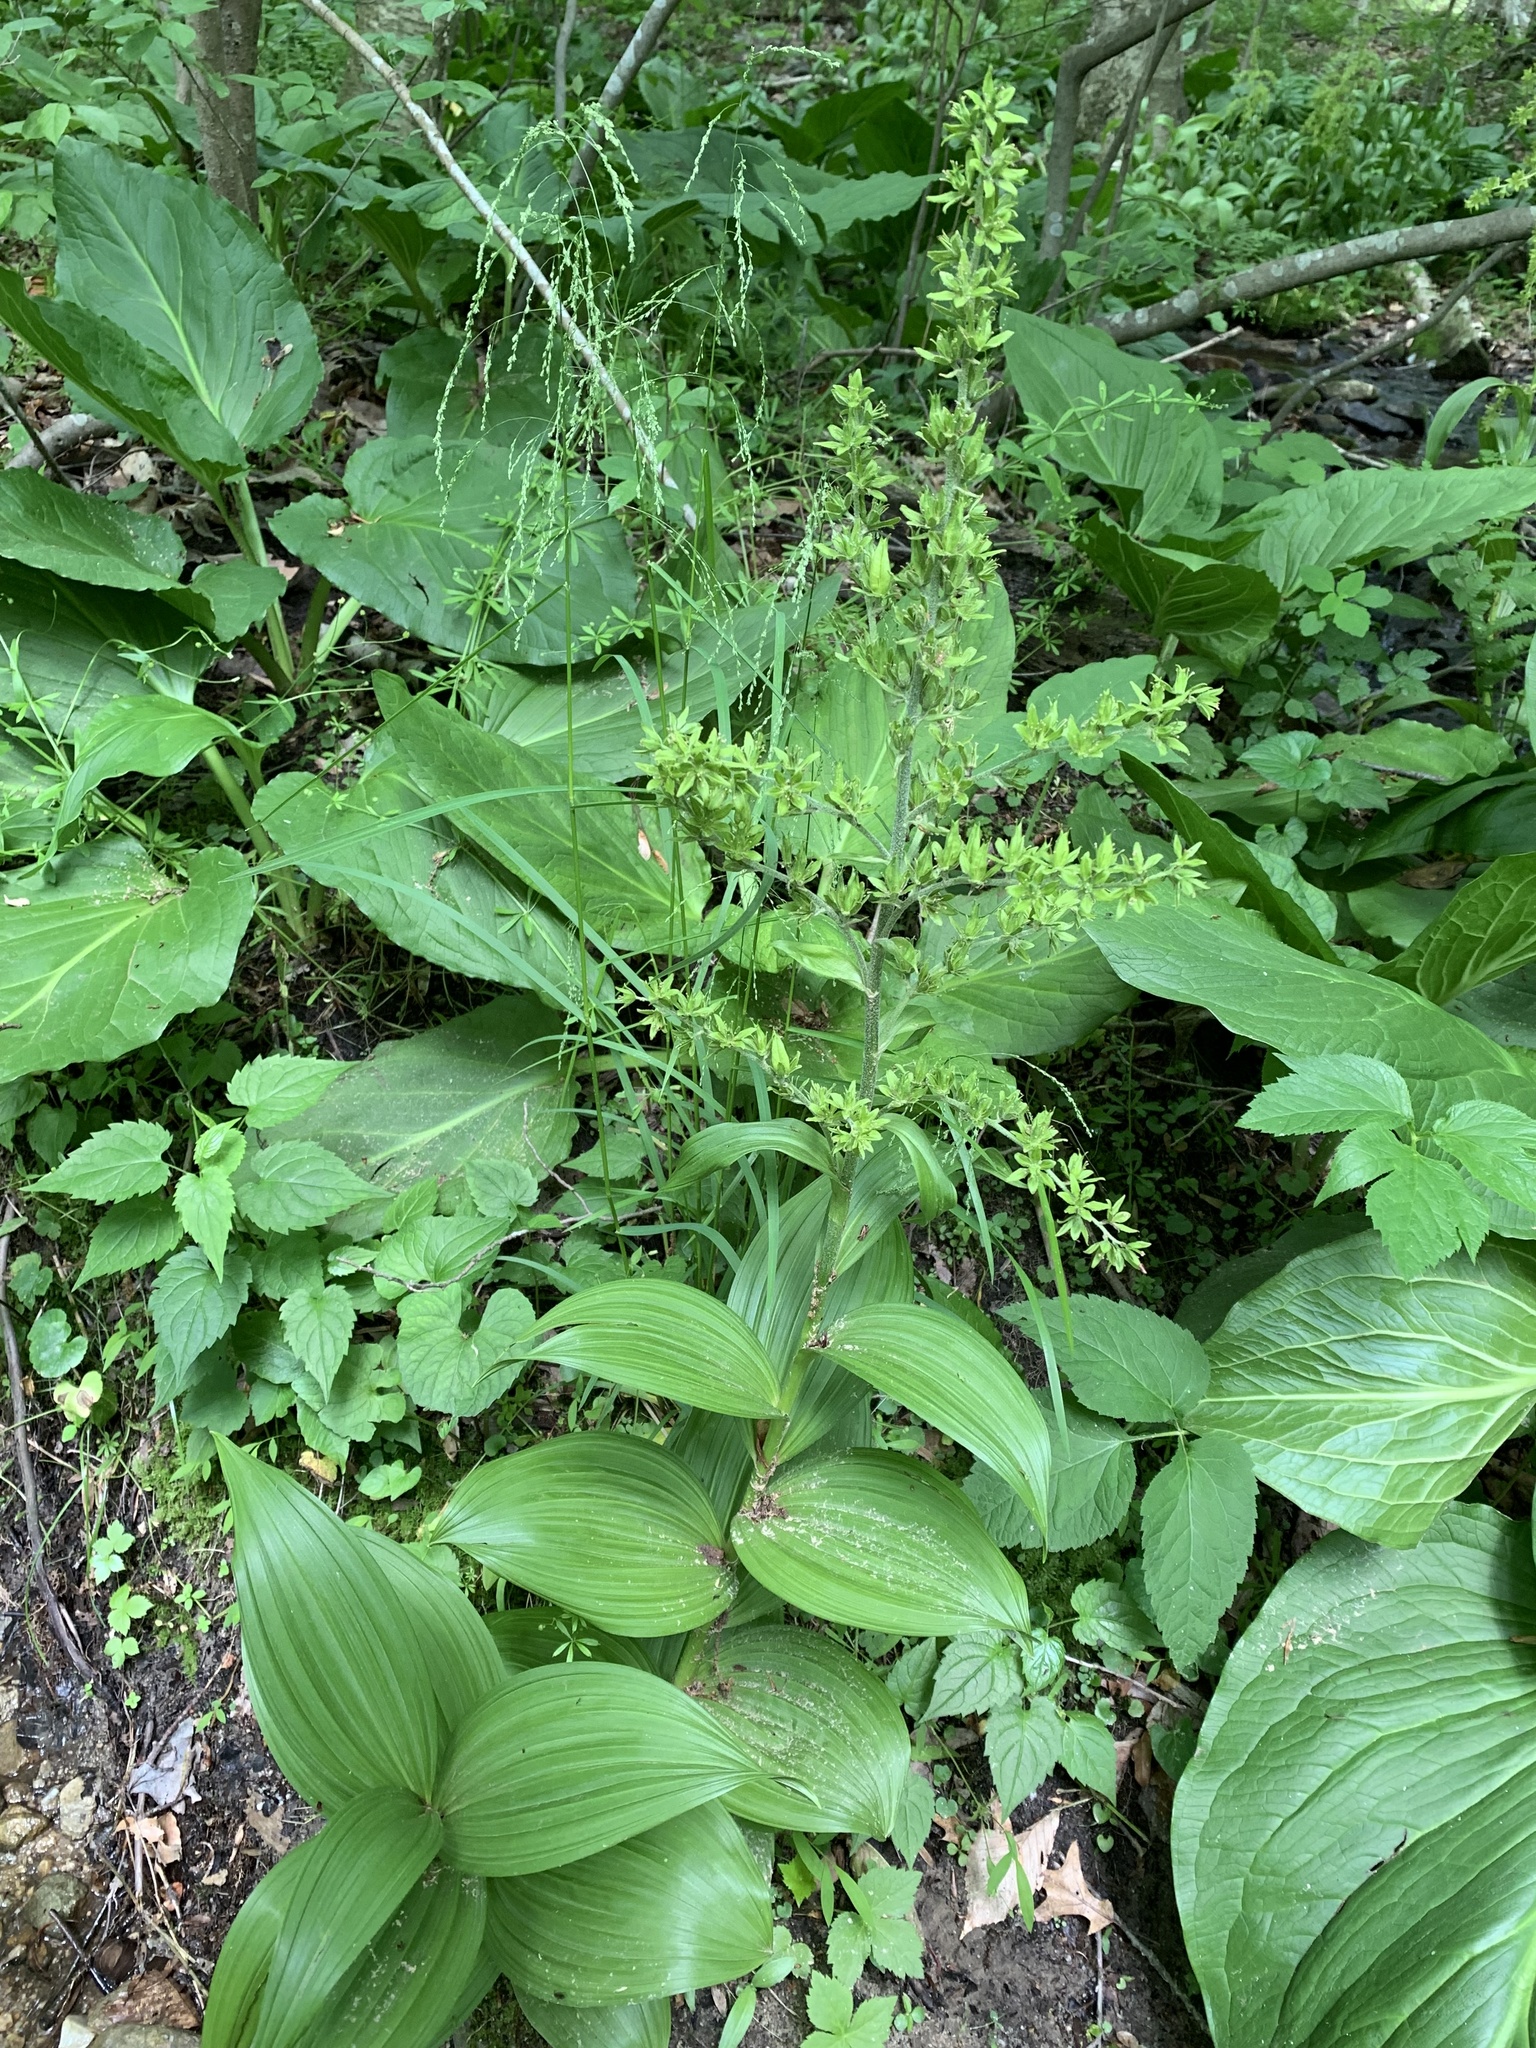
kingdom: Plantae
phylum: Tracheophyta
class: Liliopsida
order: Liliales
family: Melanthiaceae
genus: Veratrum
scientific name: Veratrum viride
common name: American false hellebore
